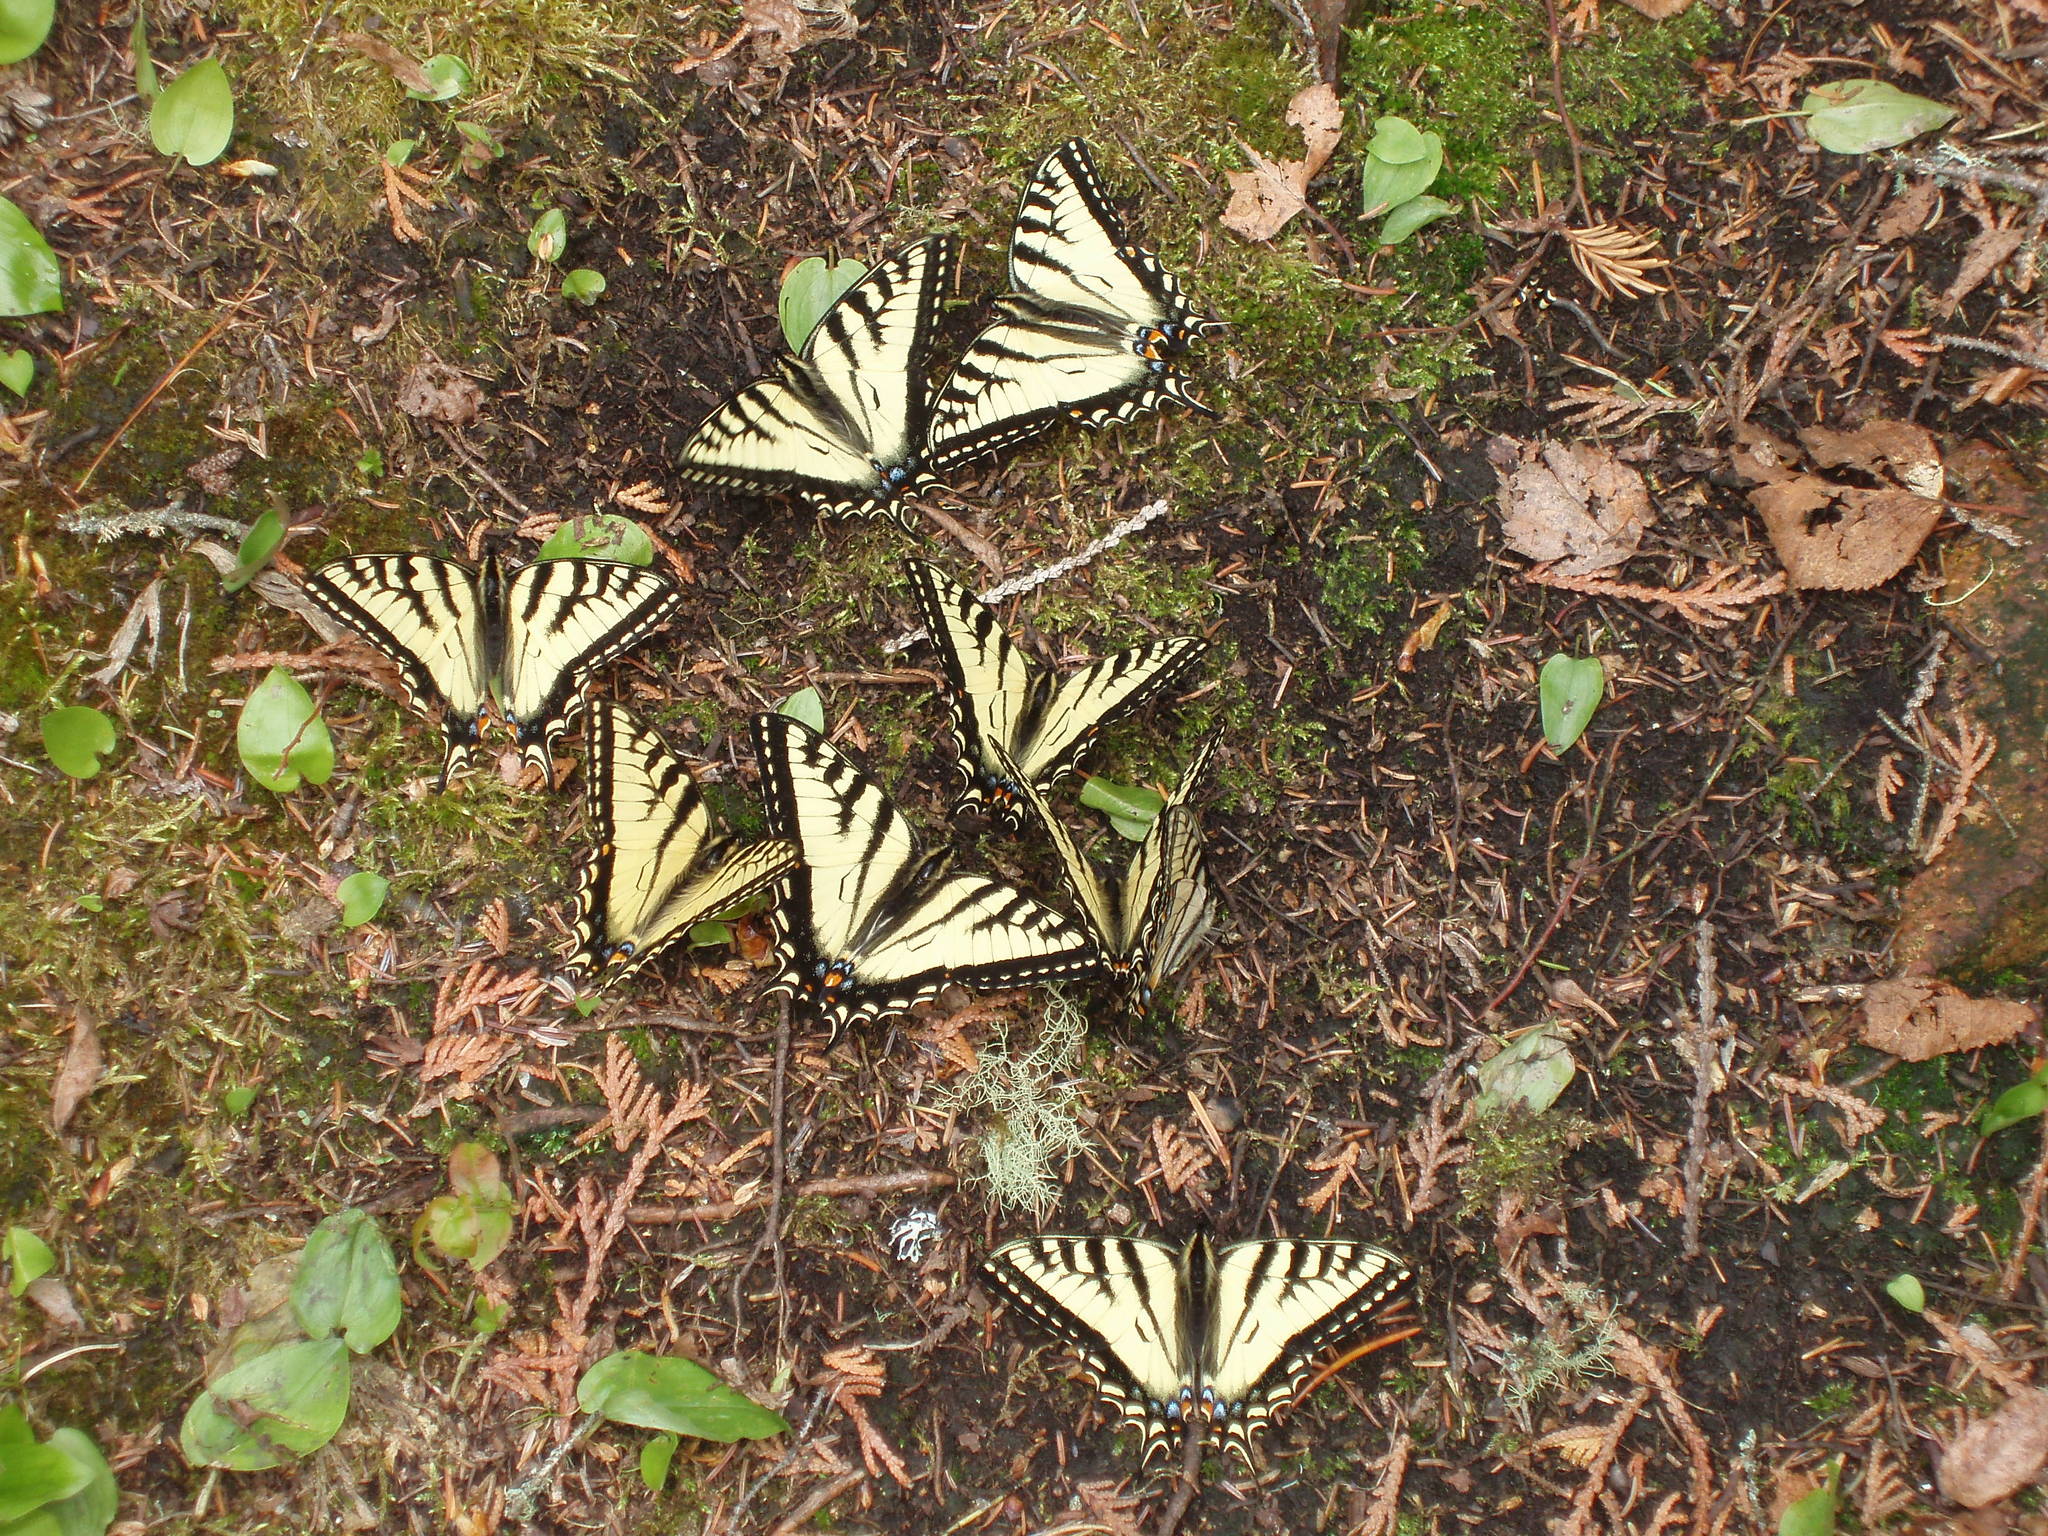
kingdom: Animalia
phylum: Arthropoda
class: Insecta
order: Lepidoptera
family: Papilionidae
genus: Papilio
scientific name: Papilio canadensis
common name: Canadian tiger swallowtail
